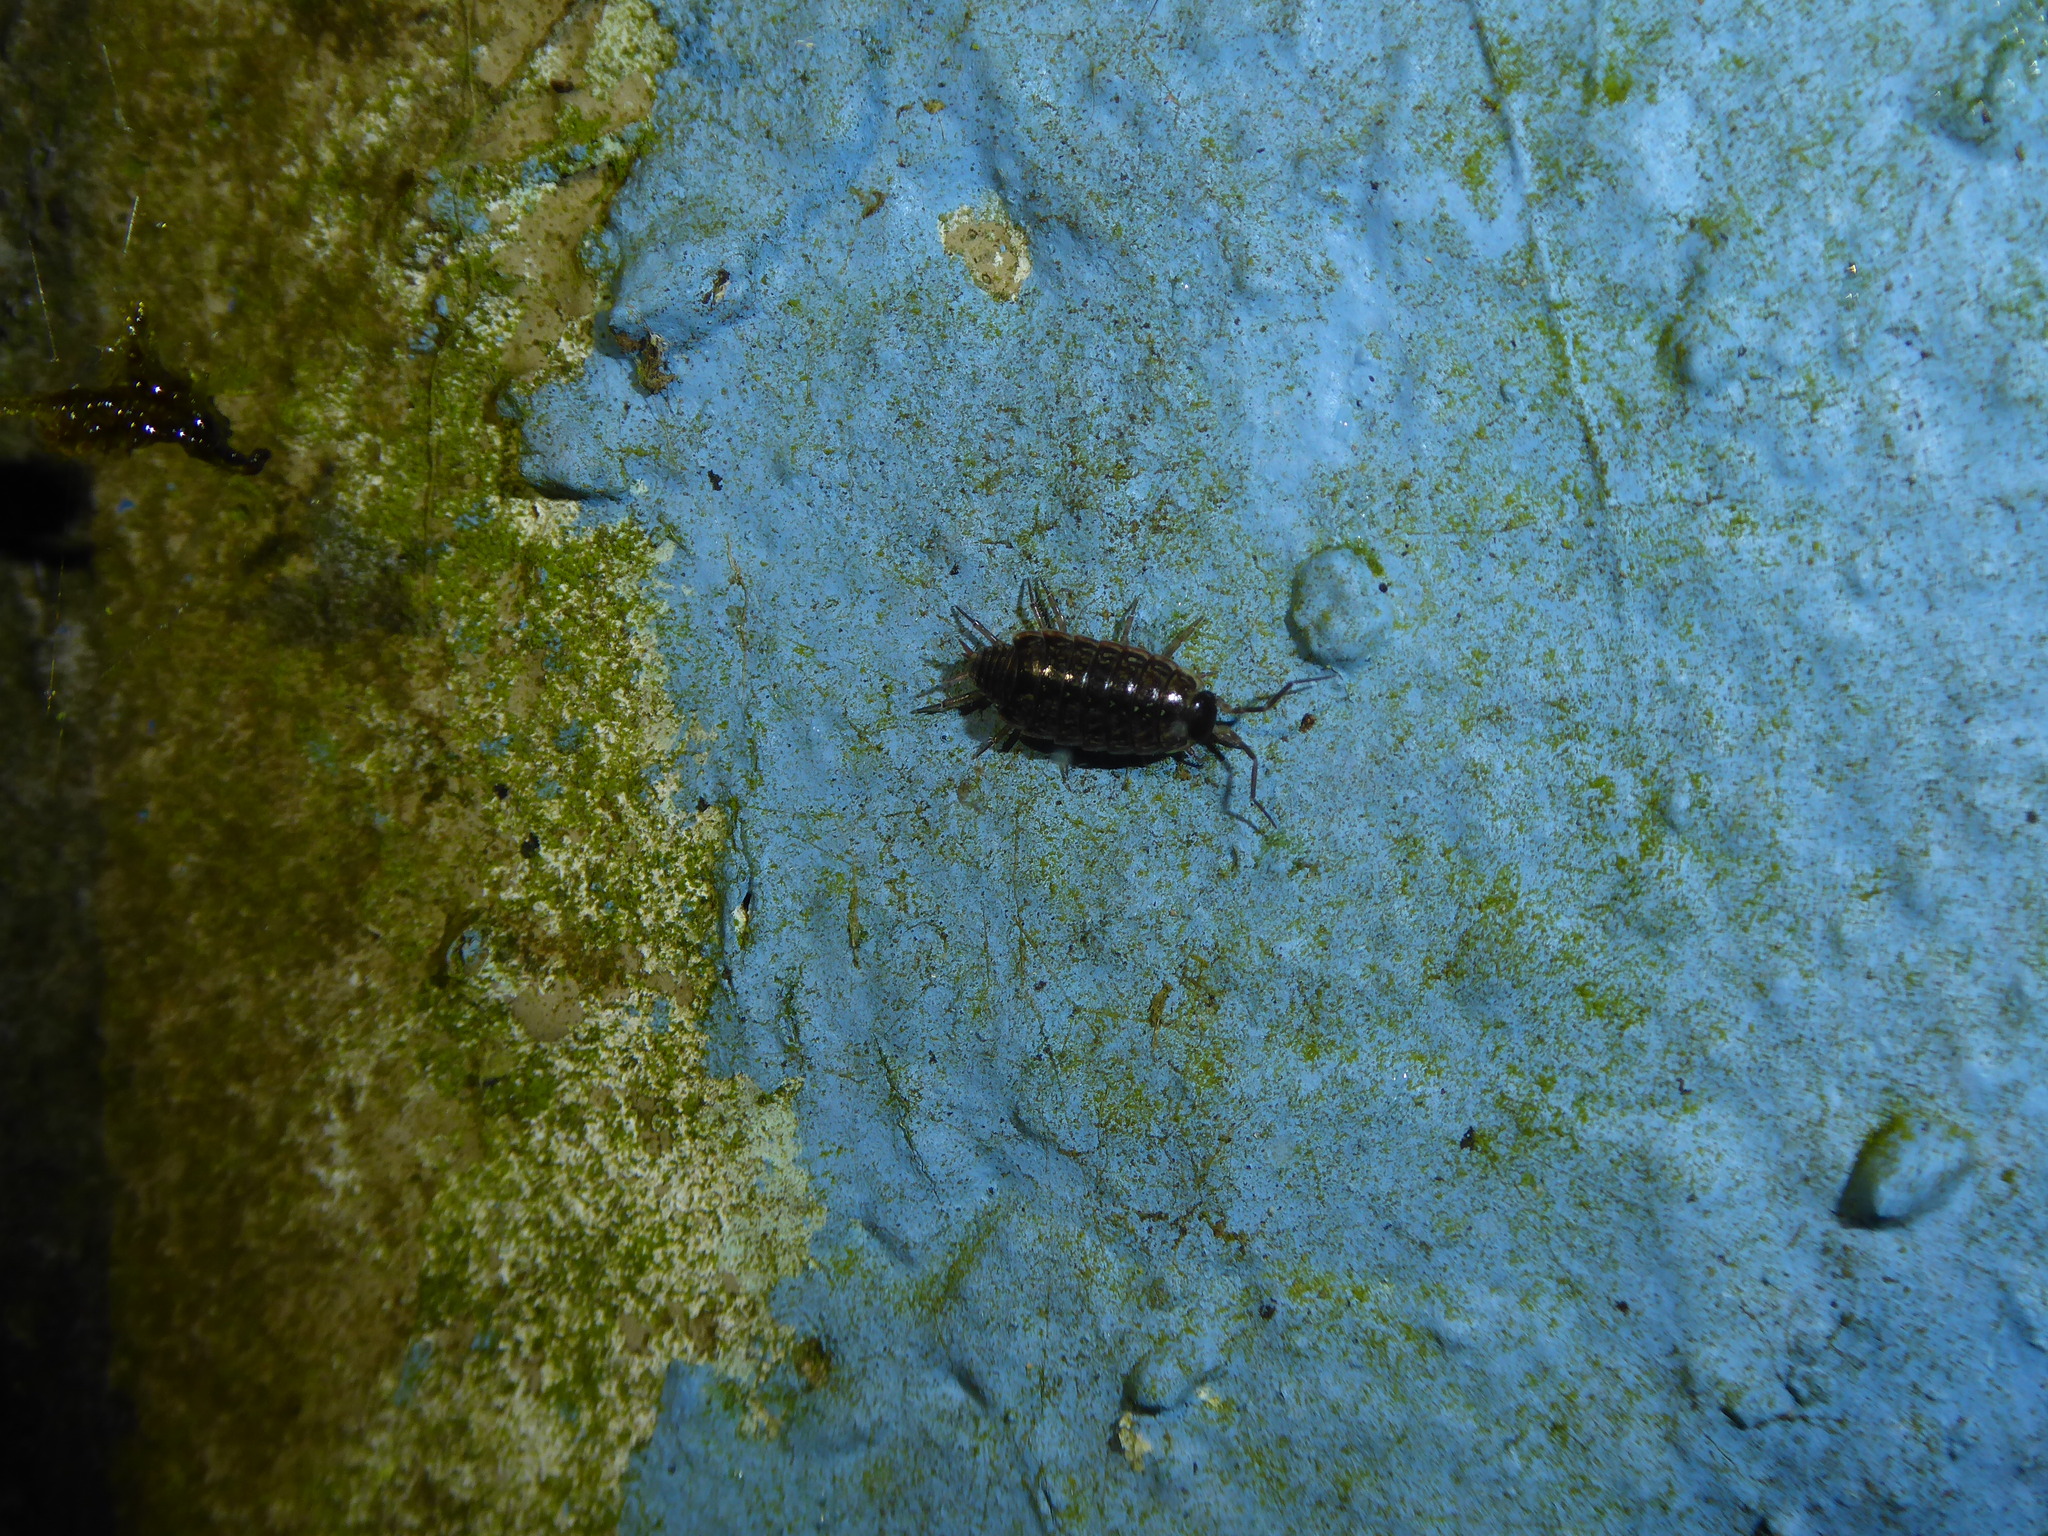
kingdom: Animalia
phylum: Arthropoda
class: Malacostraca
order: Isopoda
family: Philosciidae
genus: Philoscia
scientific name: Philoscia muscorum
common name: Common striped woodlouse
